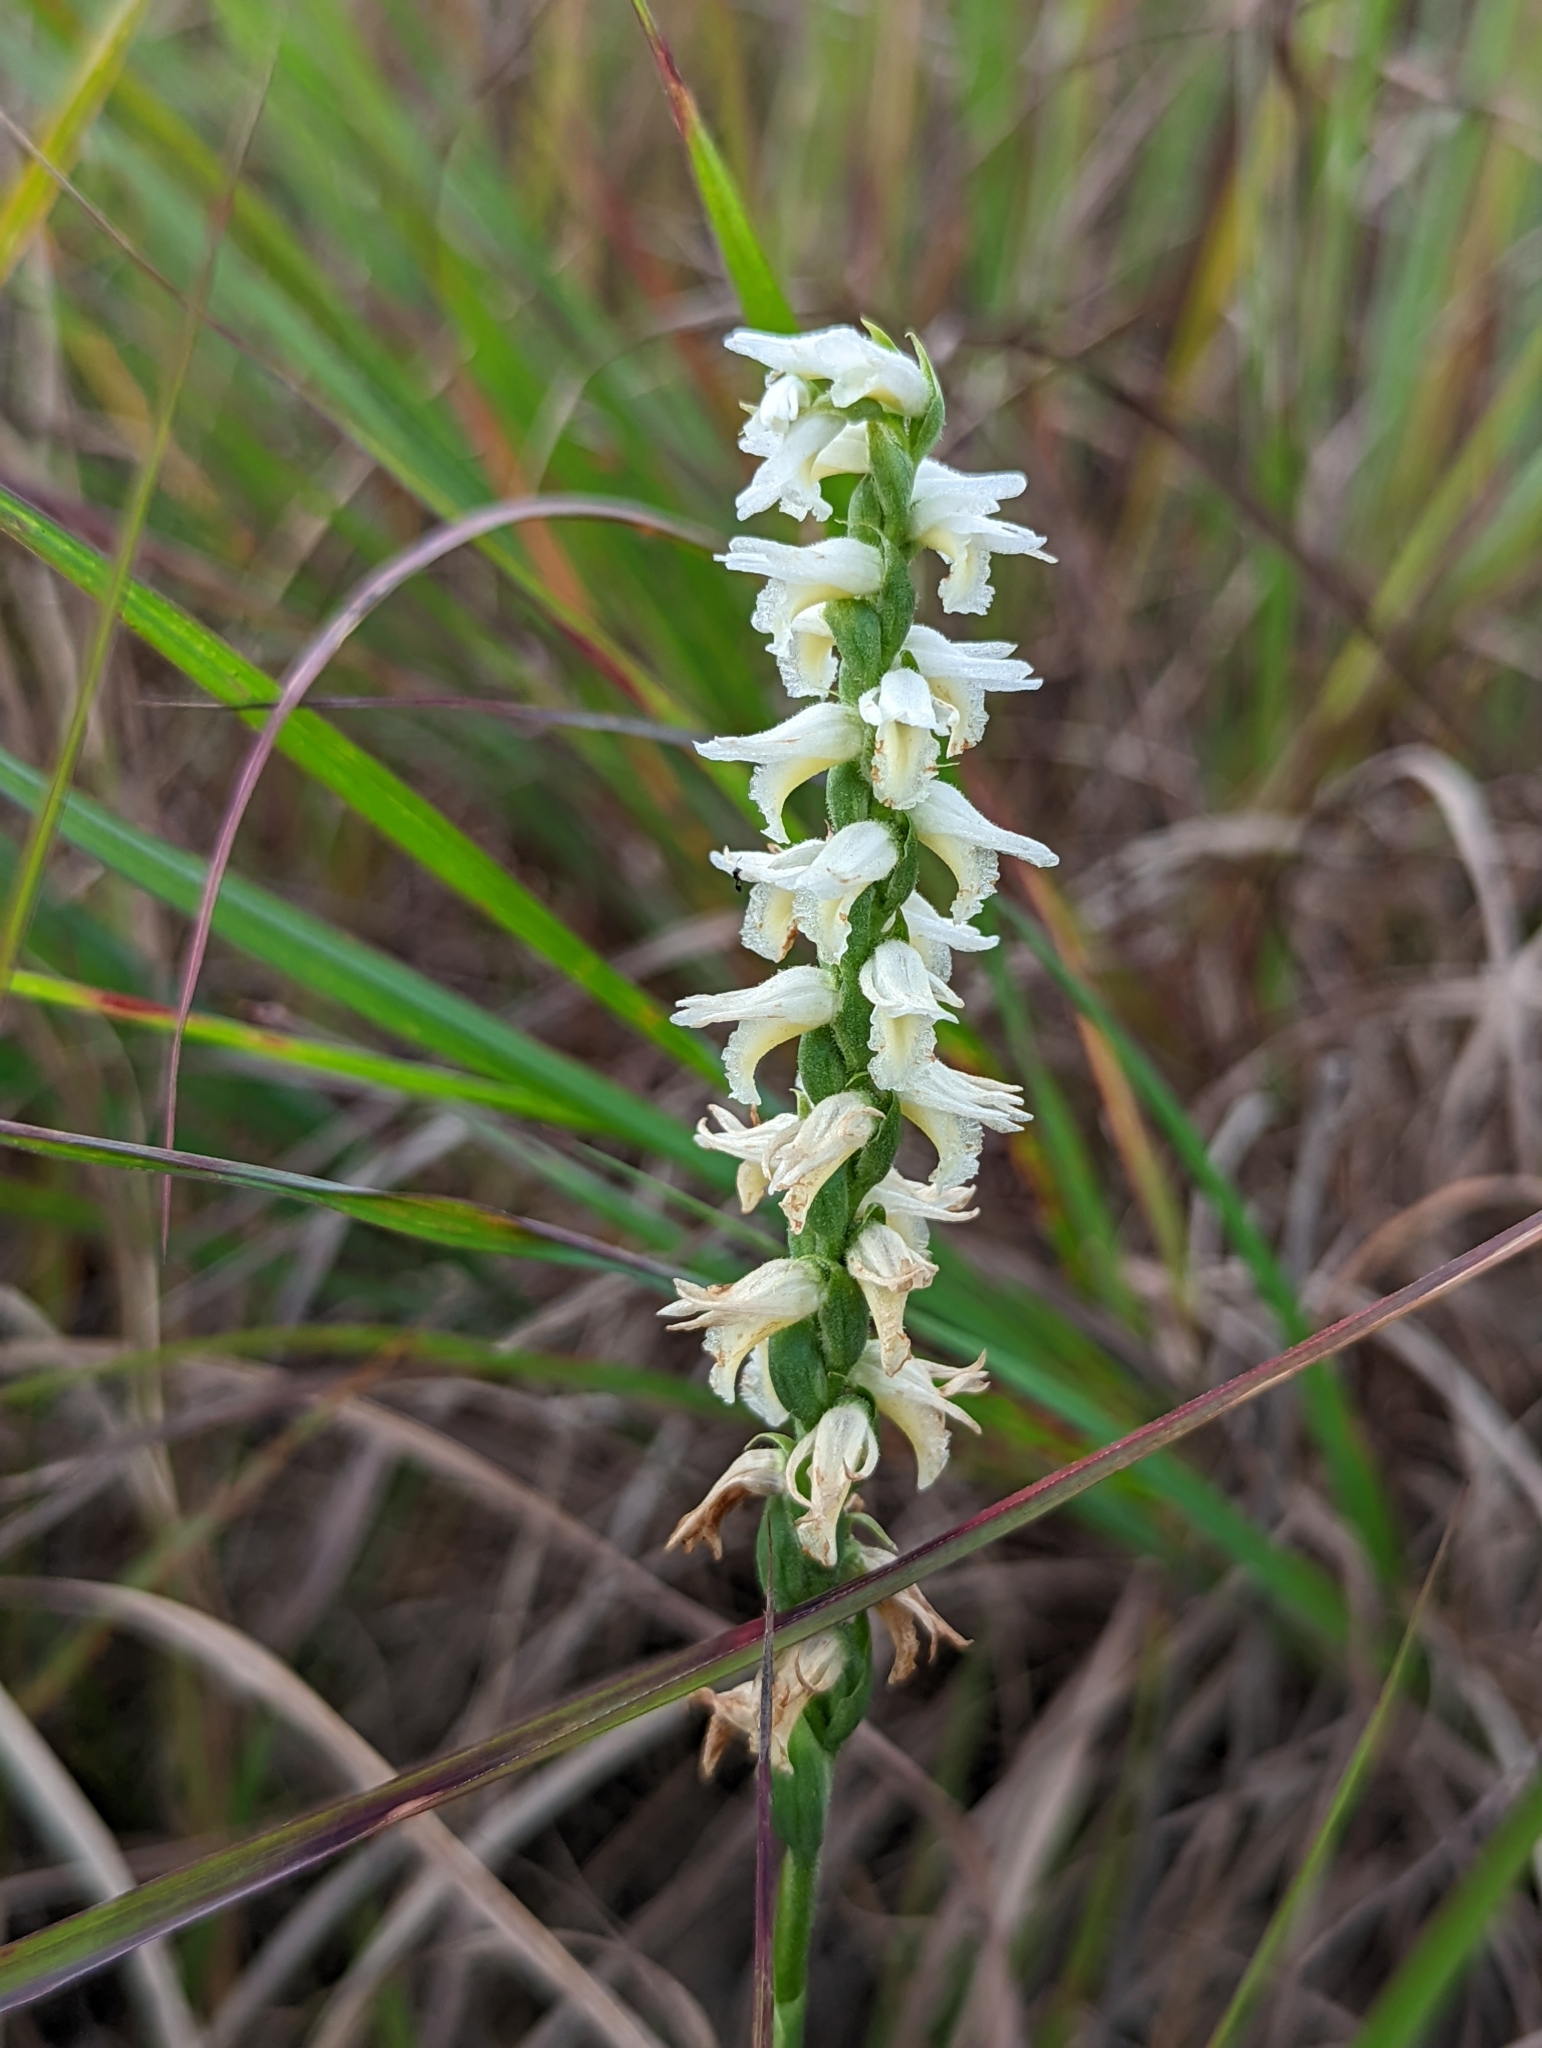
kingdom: Plantae
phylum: Tracheophyta
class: Liliopsida
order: Asparagales
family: Orchidaceae
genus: Spiranthes
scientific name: Spiranthes magnicamporum
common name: Great plains ladies'-tresses
